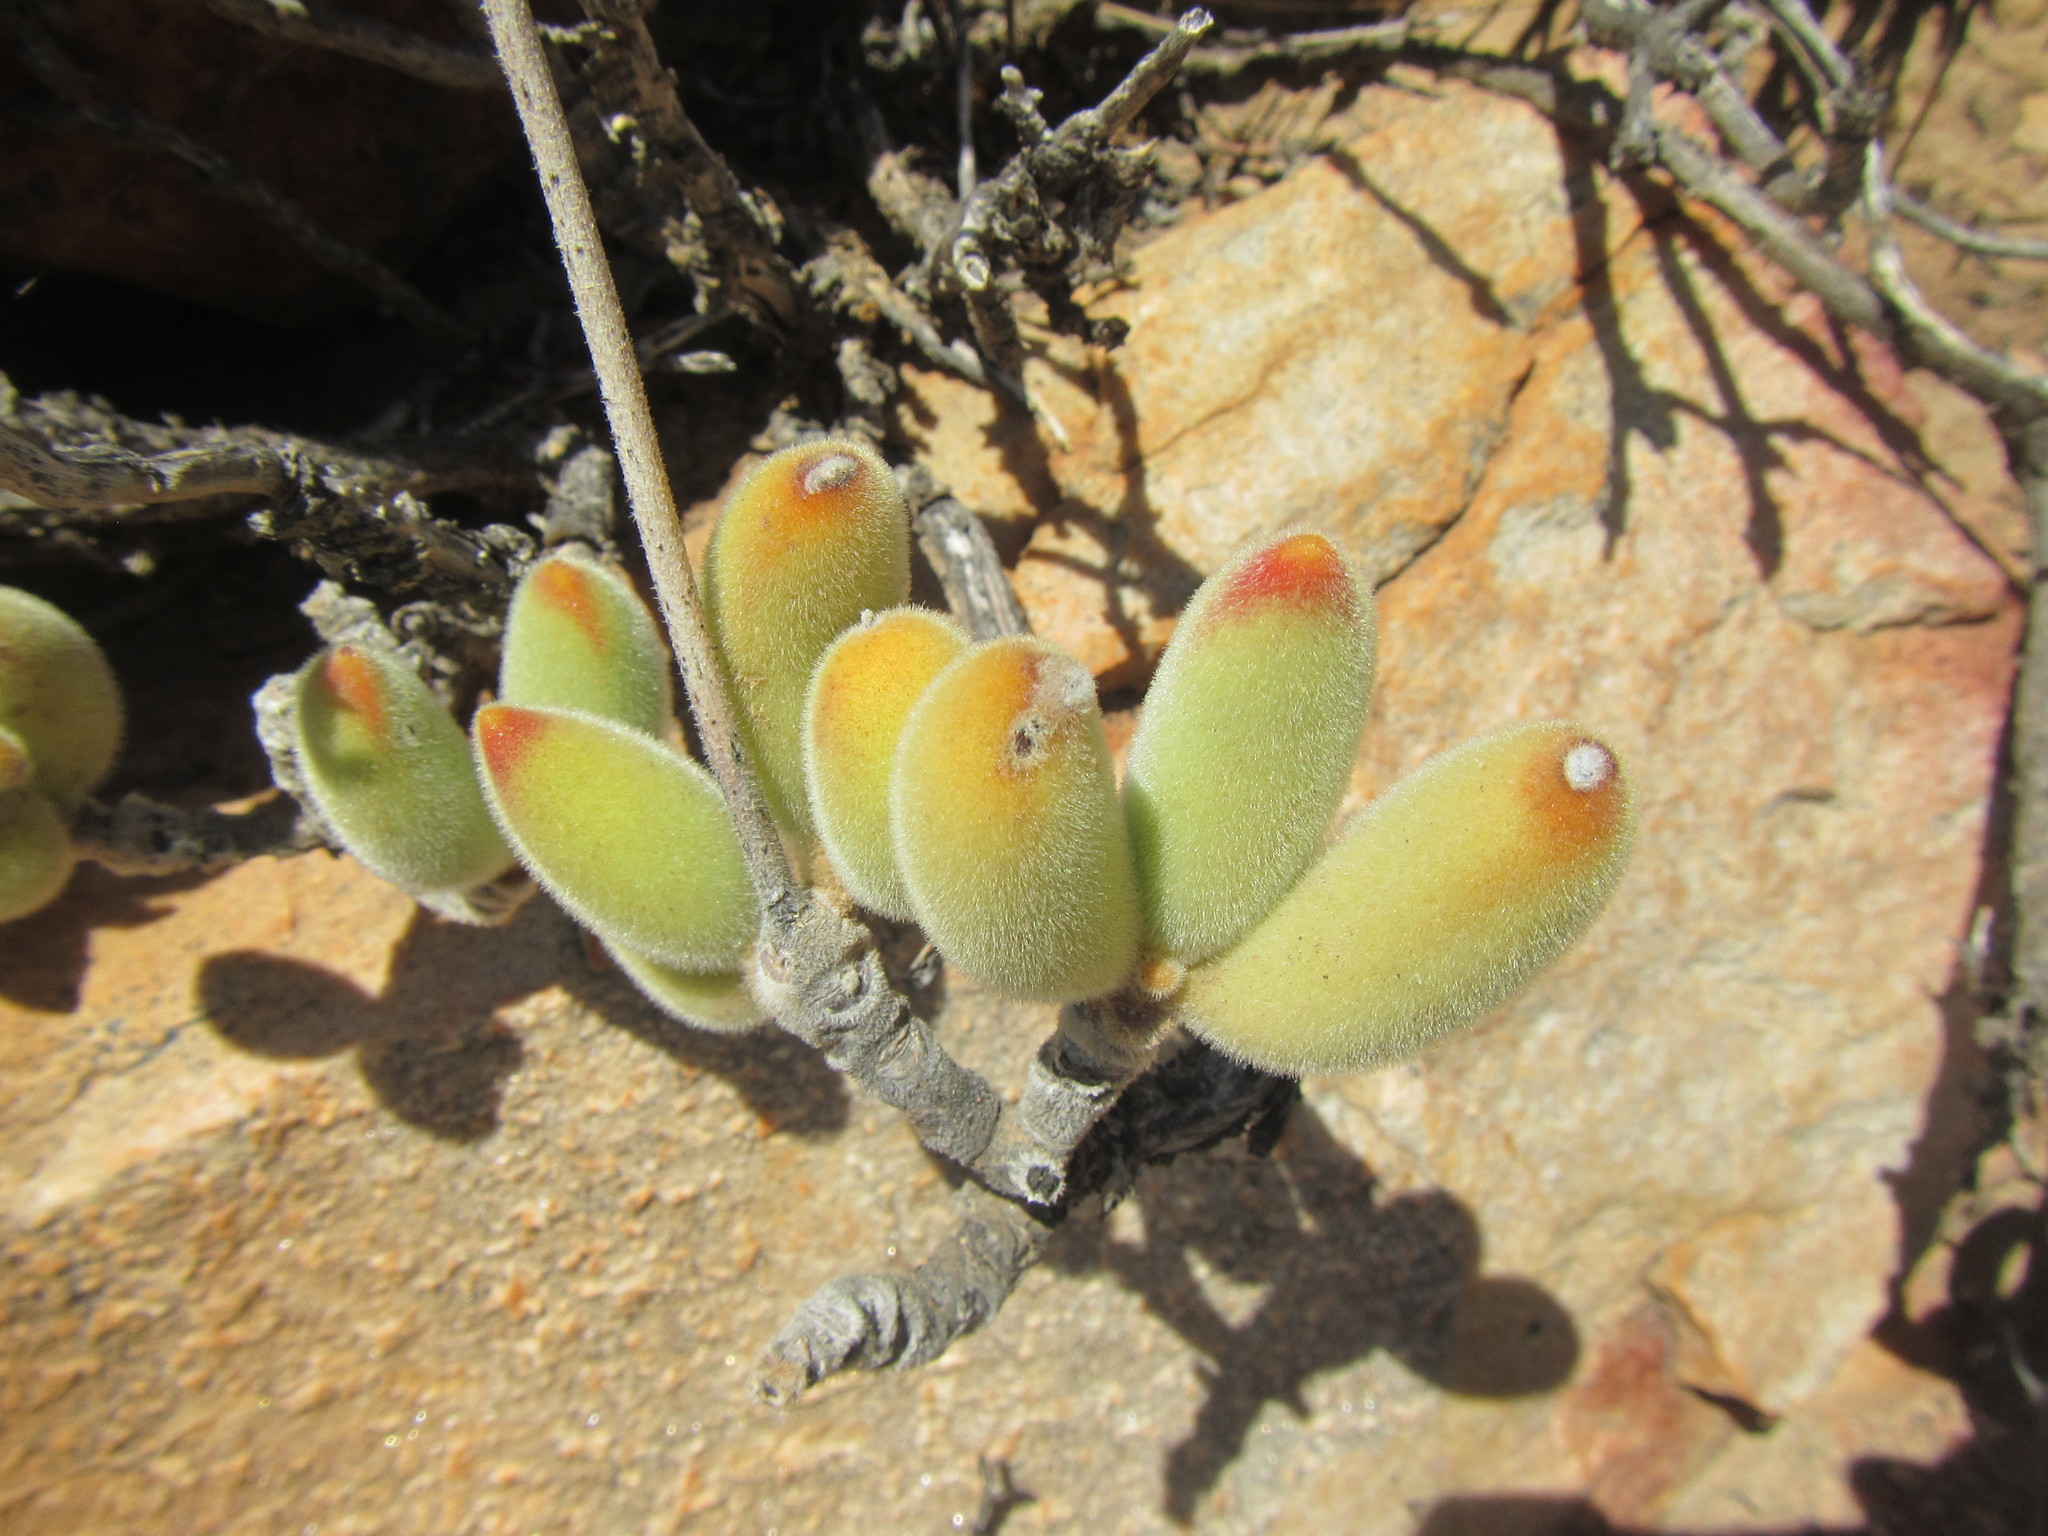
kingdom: Plantae
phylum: Tracheophyta
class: Magnoliopsida
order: Saxifragales
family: Crassulaceae
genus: Cotyledon
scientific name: Cotyledon tomentosa
